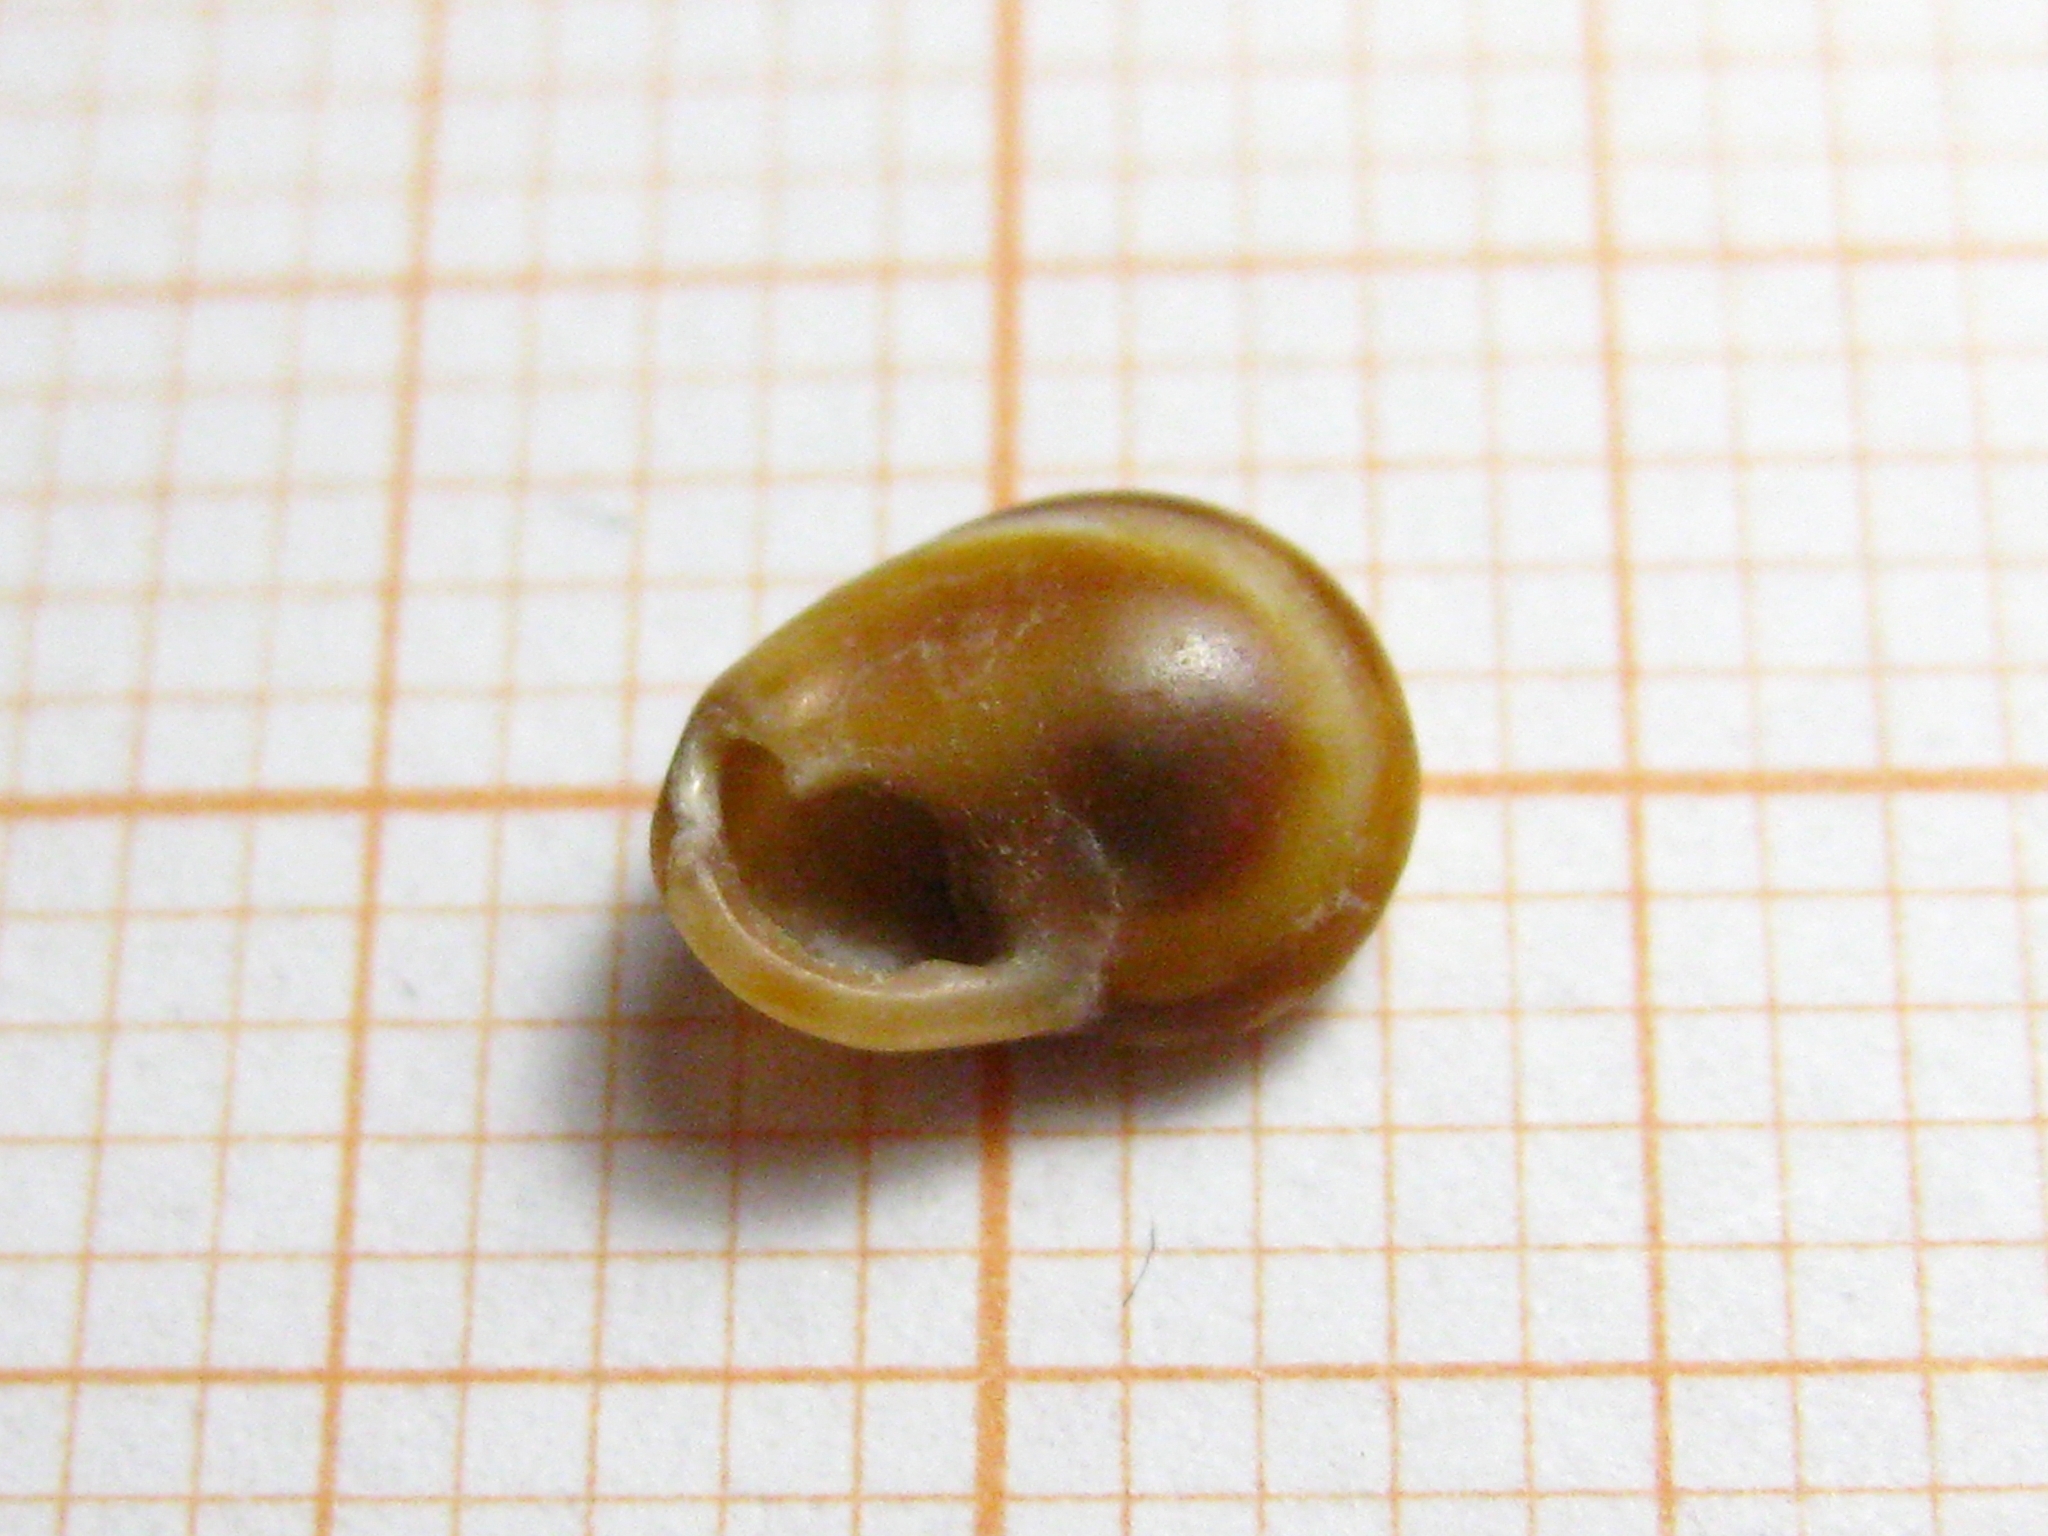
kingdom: Animalia
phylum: Mollusca
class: Gastropoda
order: Neogastropoda
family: Nassariidae
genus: Tritia
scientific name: Tritia pellucida
